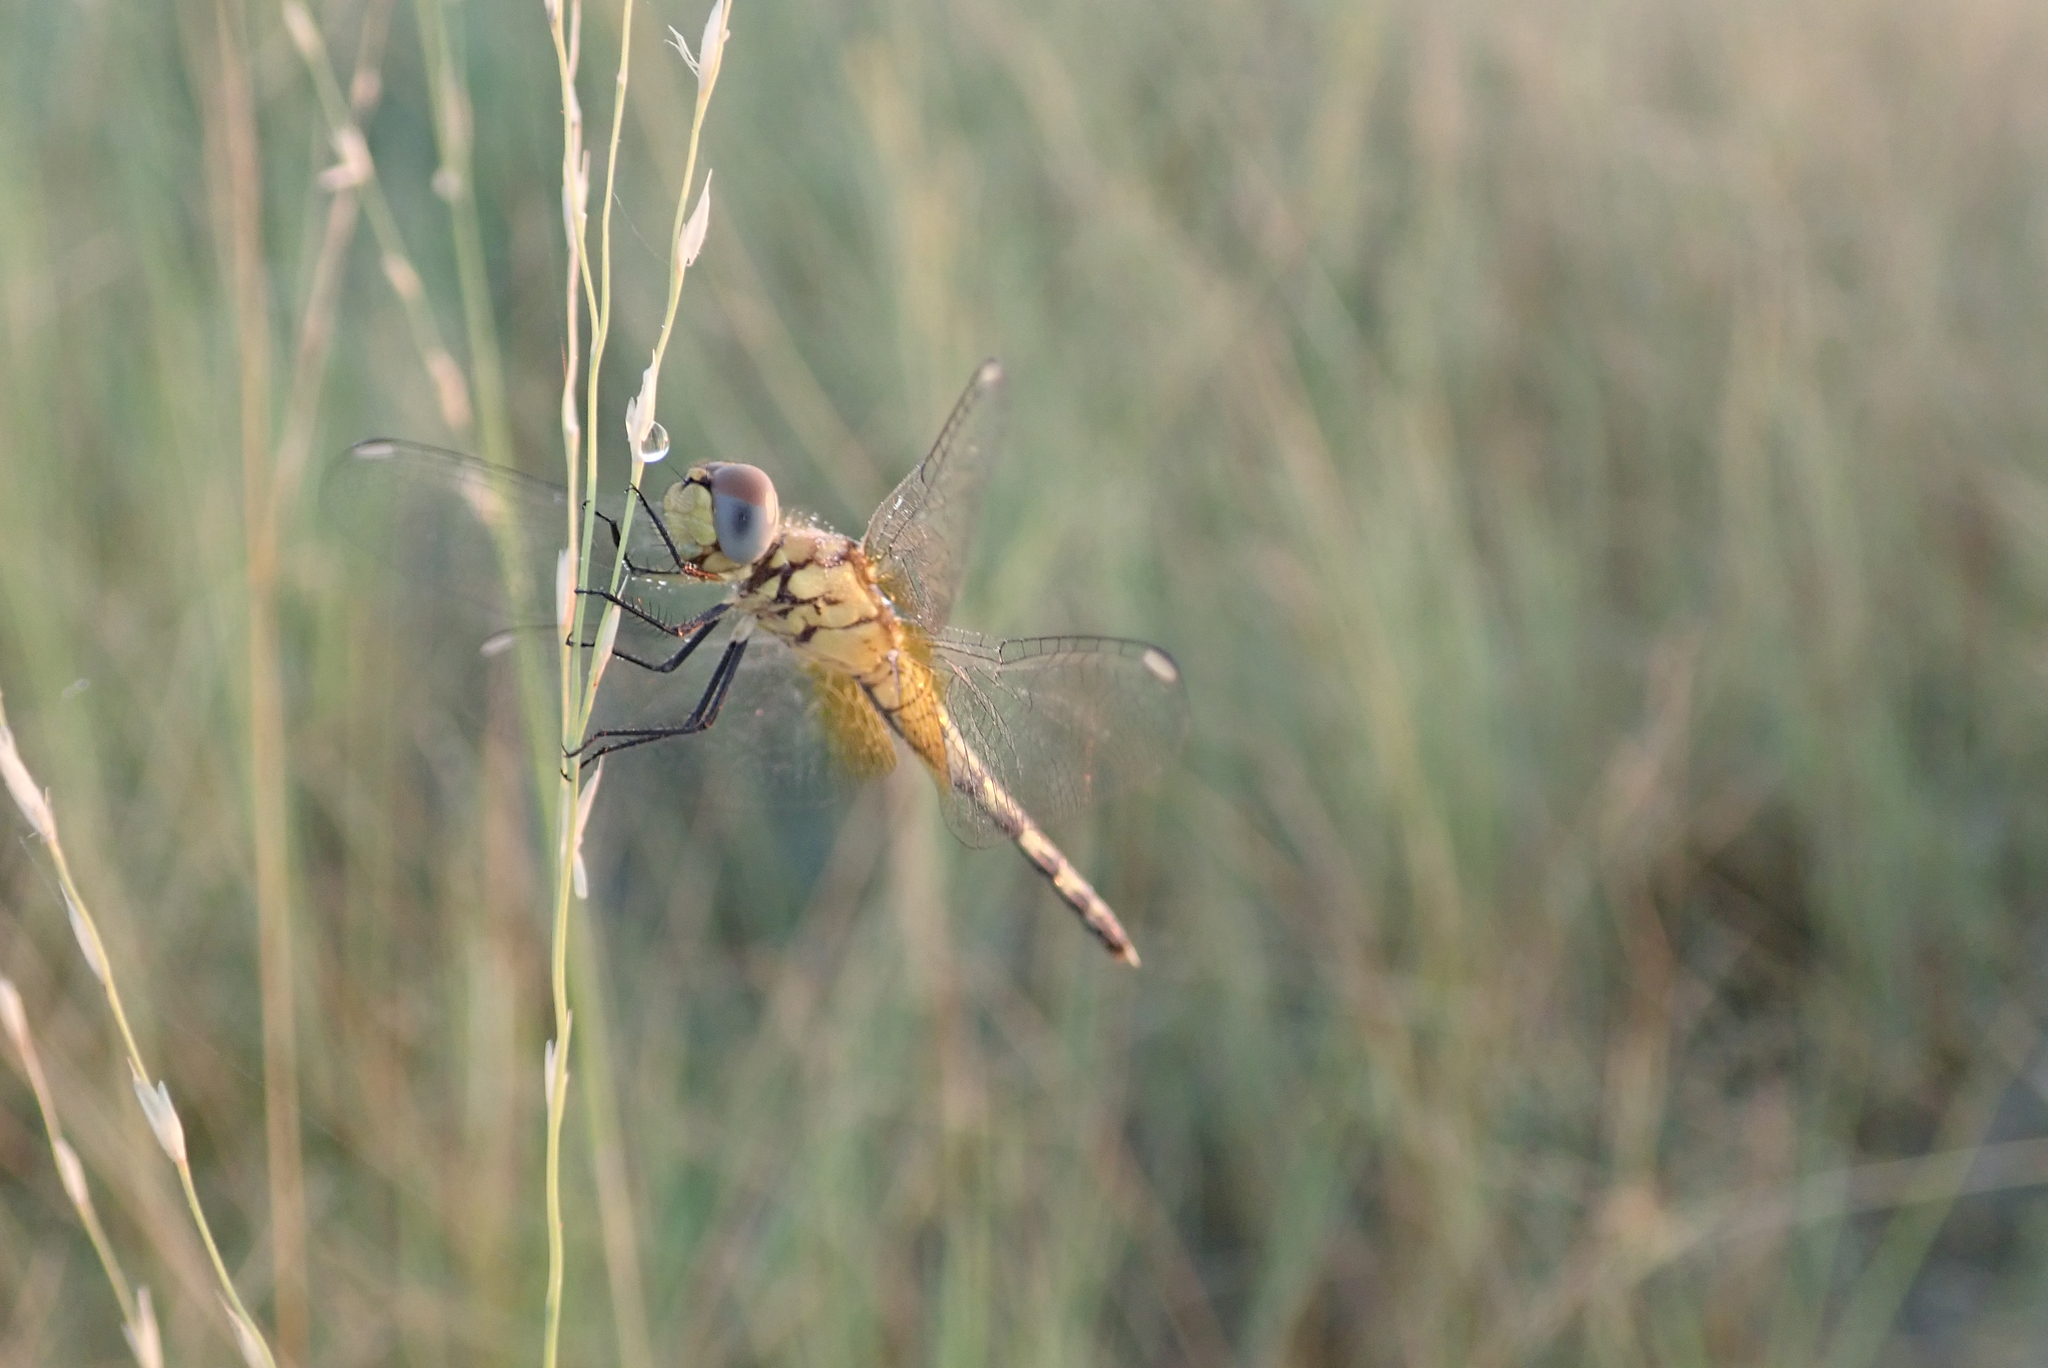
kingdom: Animalia
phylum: Arthropoda
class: Insecta
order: Odonata
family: Libellulidae
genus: Diplacodes
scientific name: Diplacodes luminans
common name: Barbet percher
